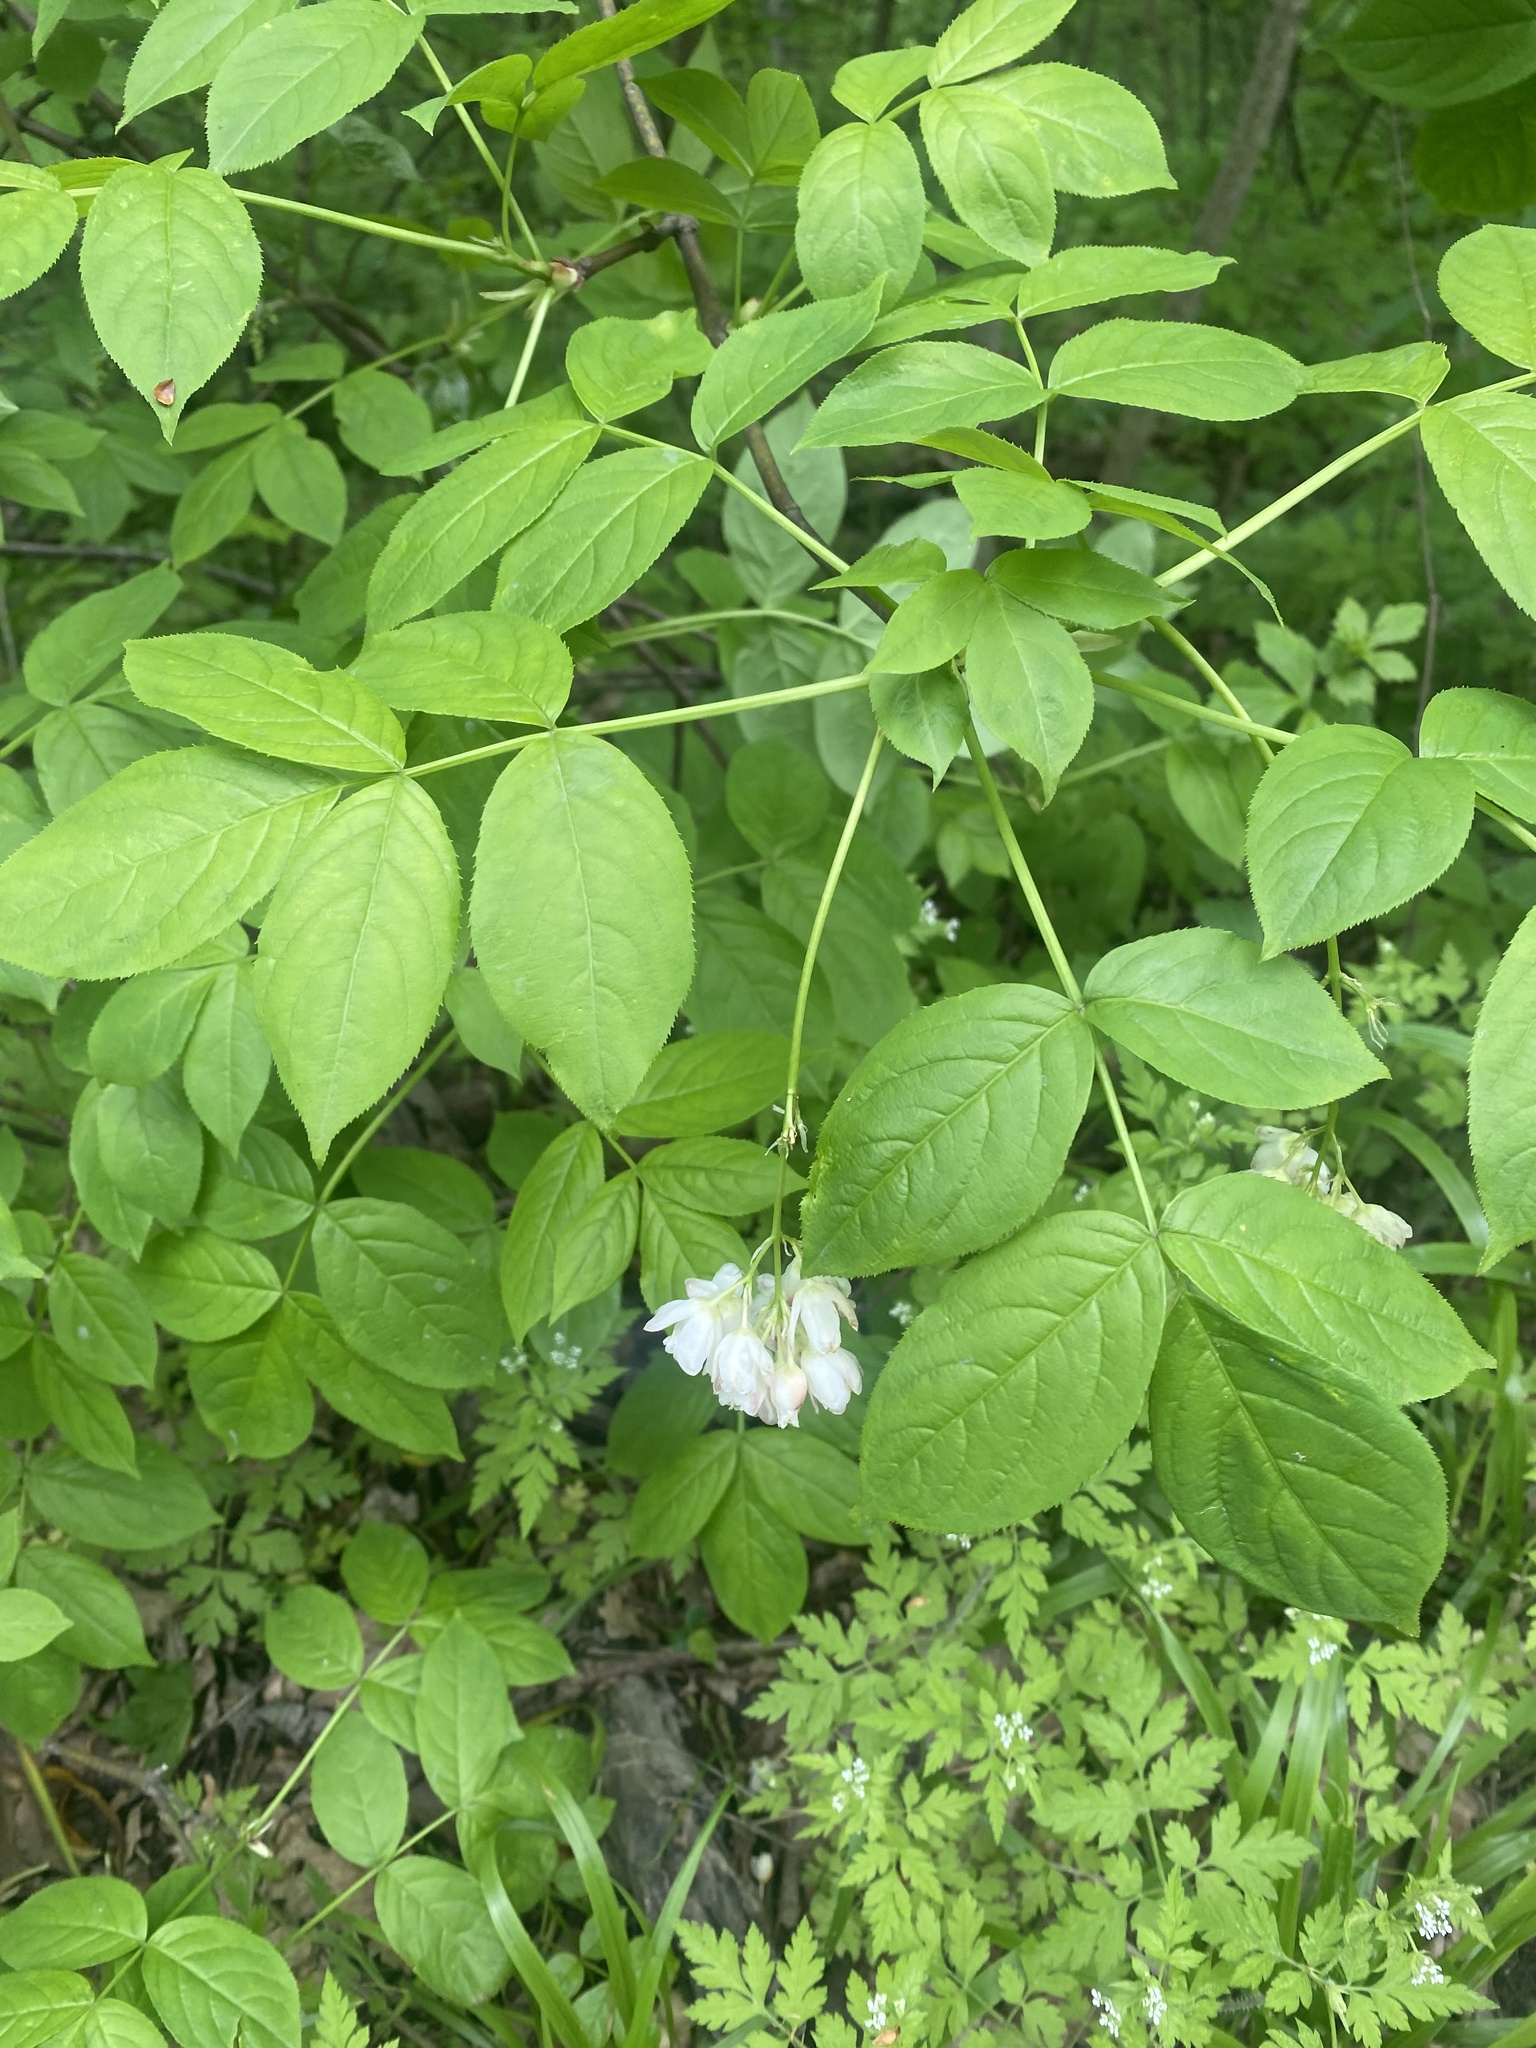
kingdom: Plantae
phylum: Tracheophyta
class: Magnoliopsida
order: Crossosomatales
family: Staphyleaceae
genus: Staphylea
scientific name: Staphylea pinnata
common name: Bladdernut
